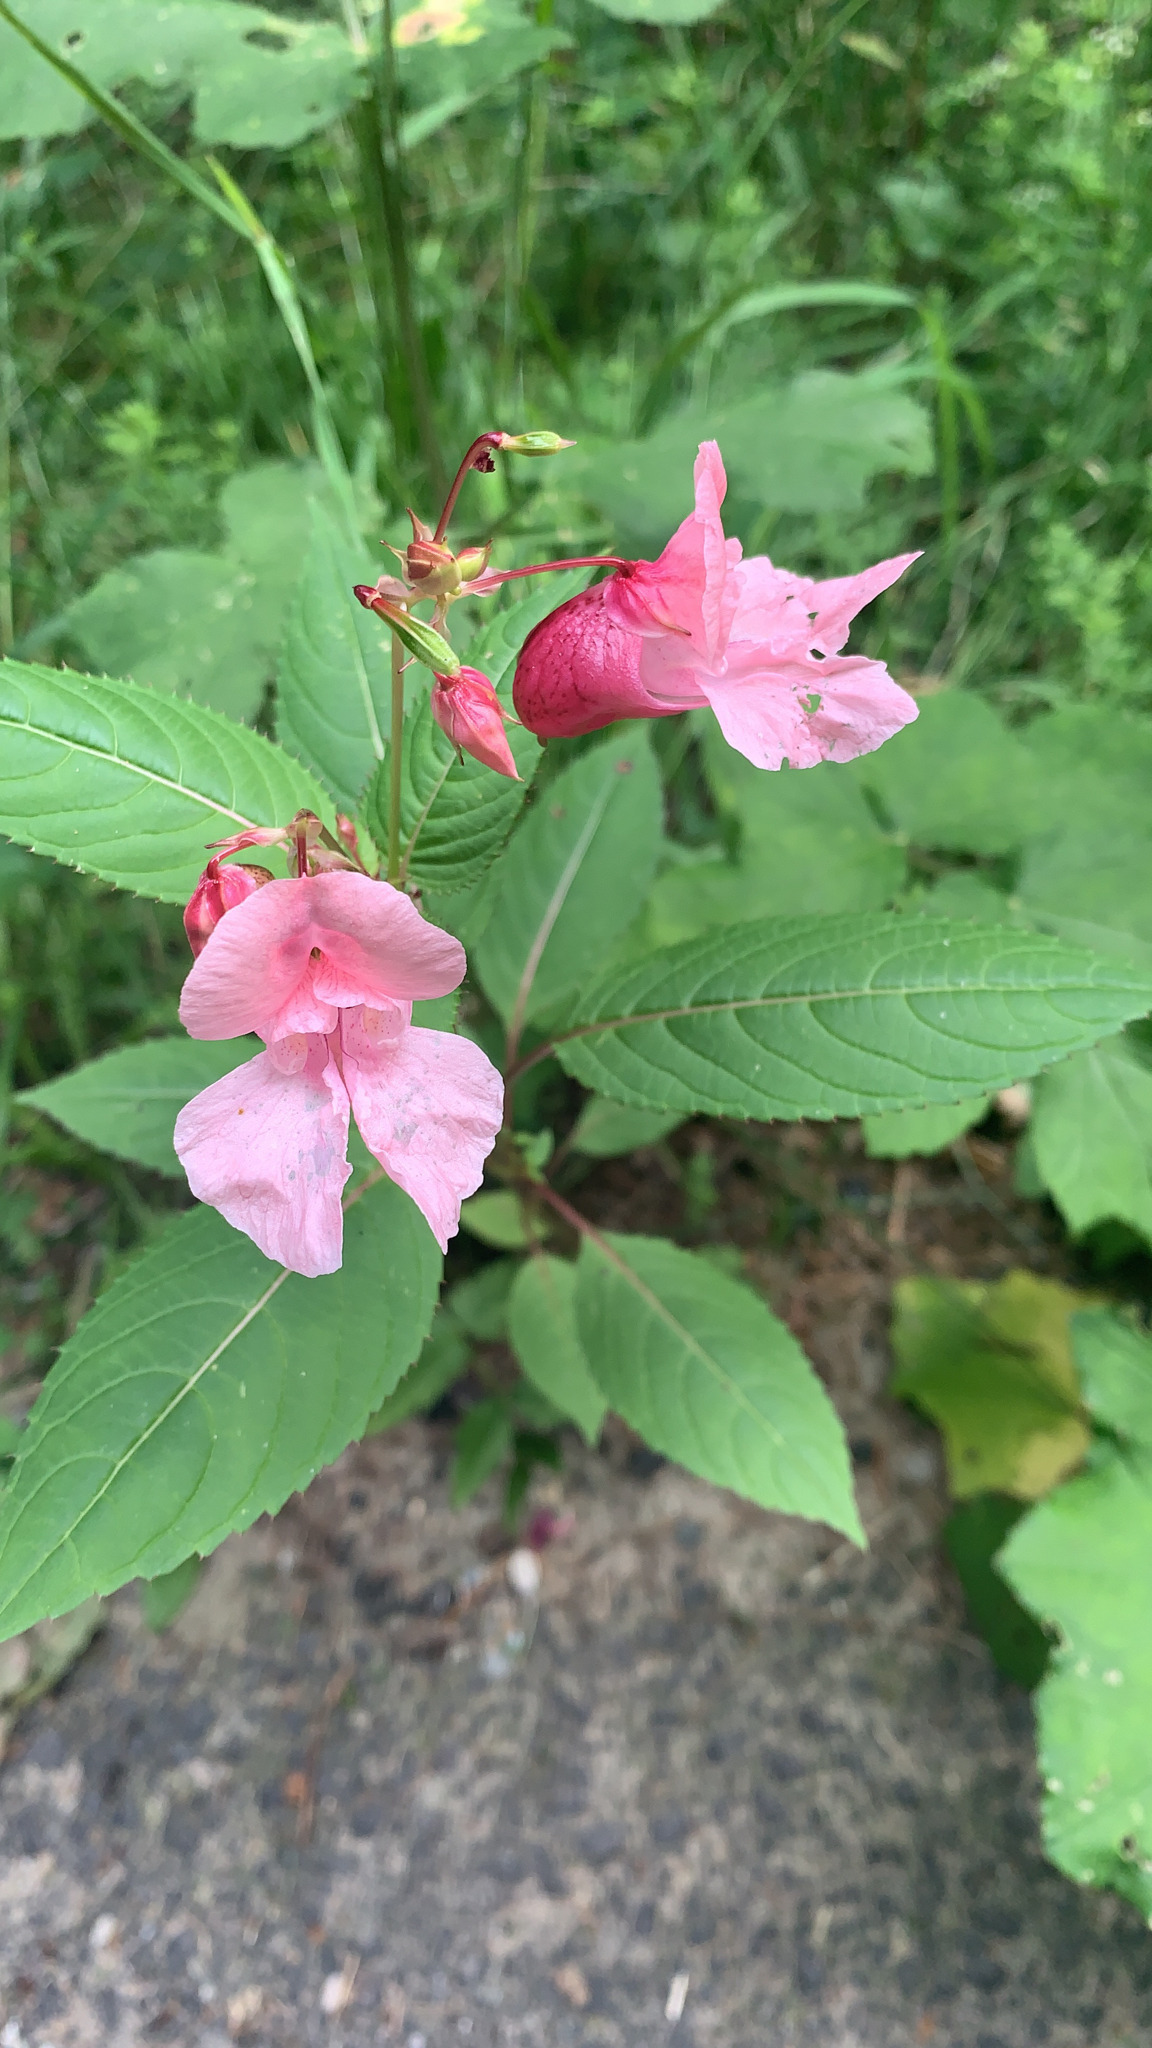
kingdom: Plantae
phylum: Tracheophyta
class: Magnoliopsida
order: Ericales
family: Balsaminaceae
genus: Impatiens
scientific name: Impatiens glandulifera
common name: Himalayan balsam
